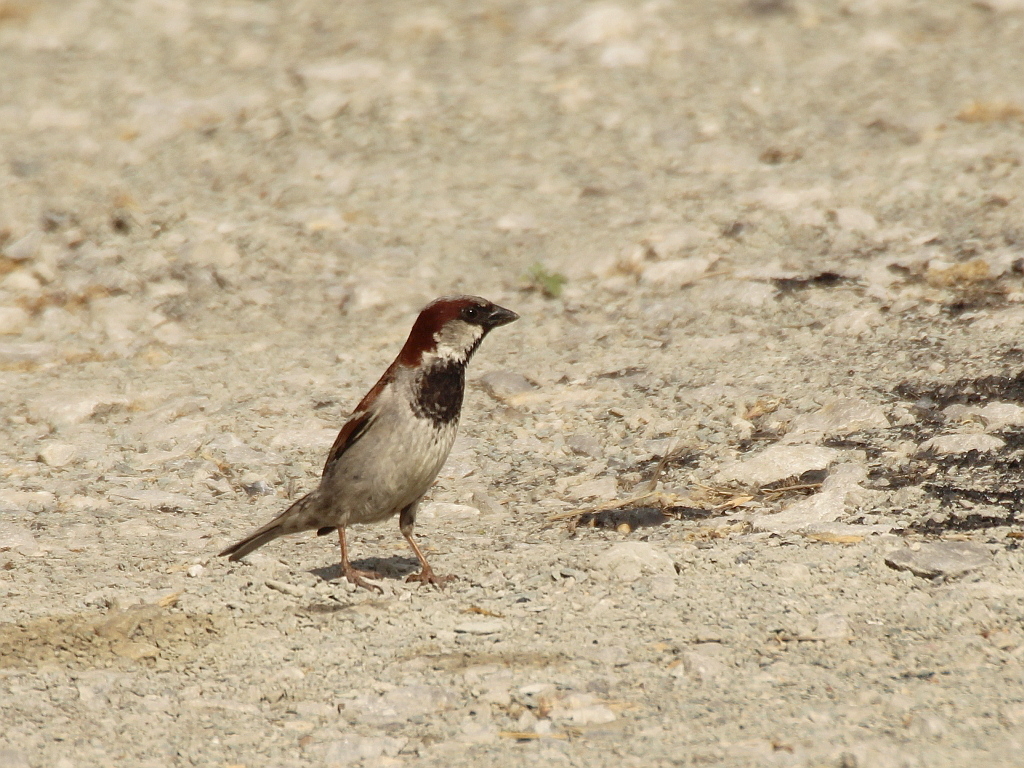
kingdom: Animalia
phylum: Chordata
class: Aves
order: Passeriformes
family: Passeridae
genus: Passer
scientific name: Passer domesticus
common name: House sparrow
